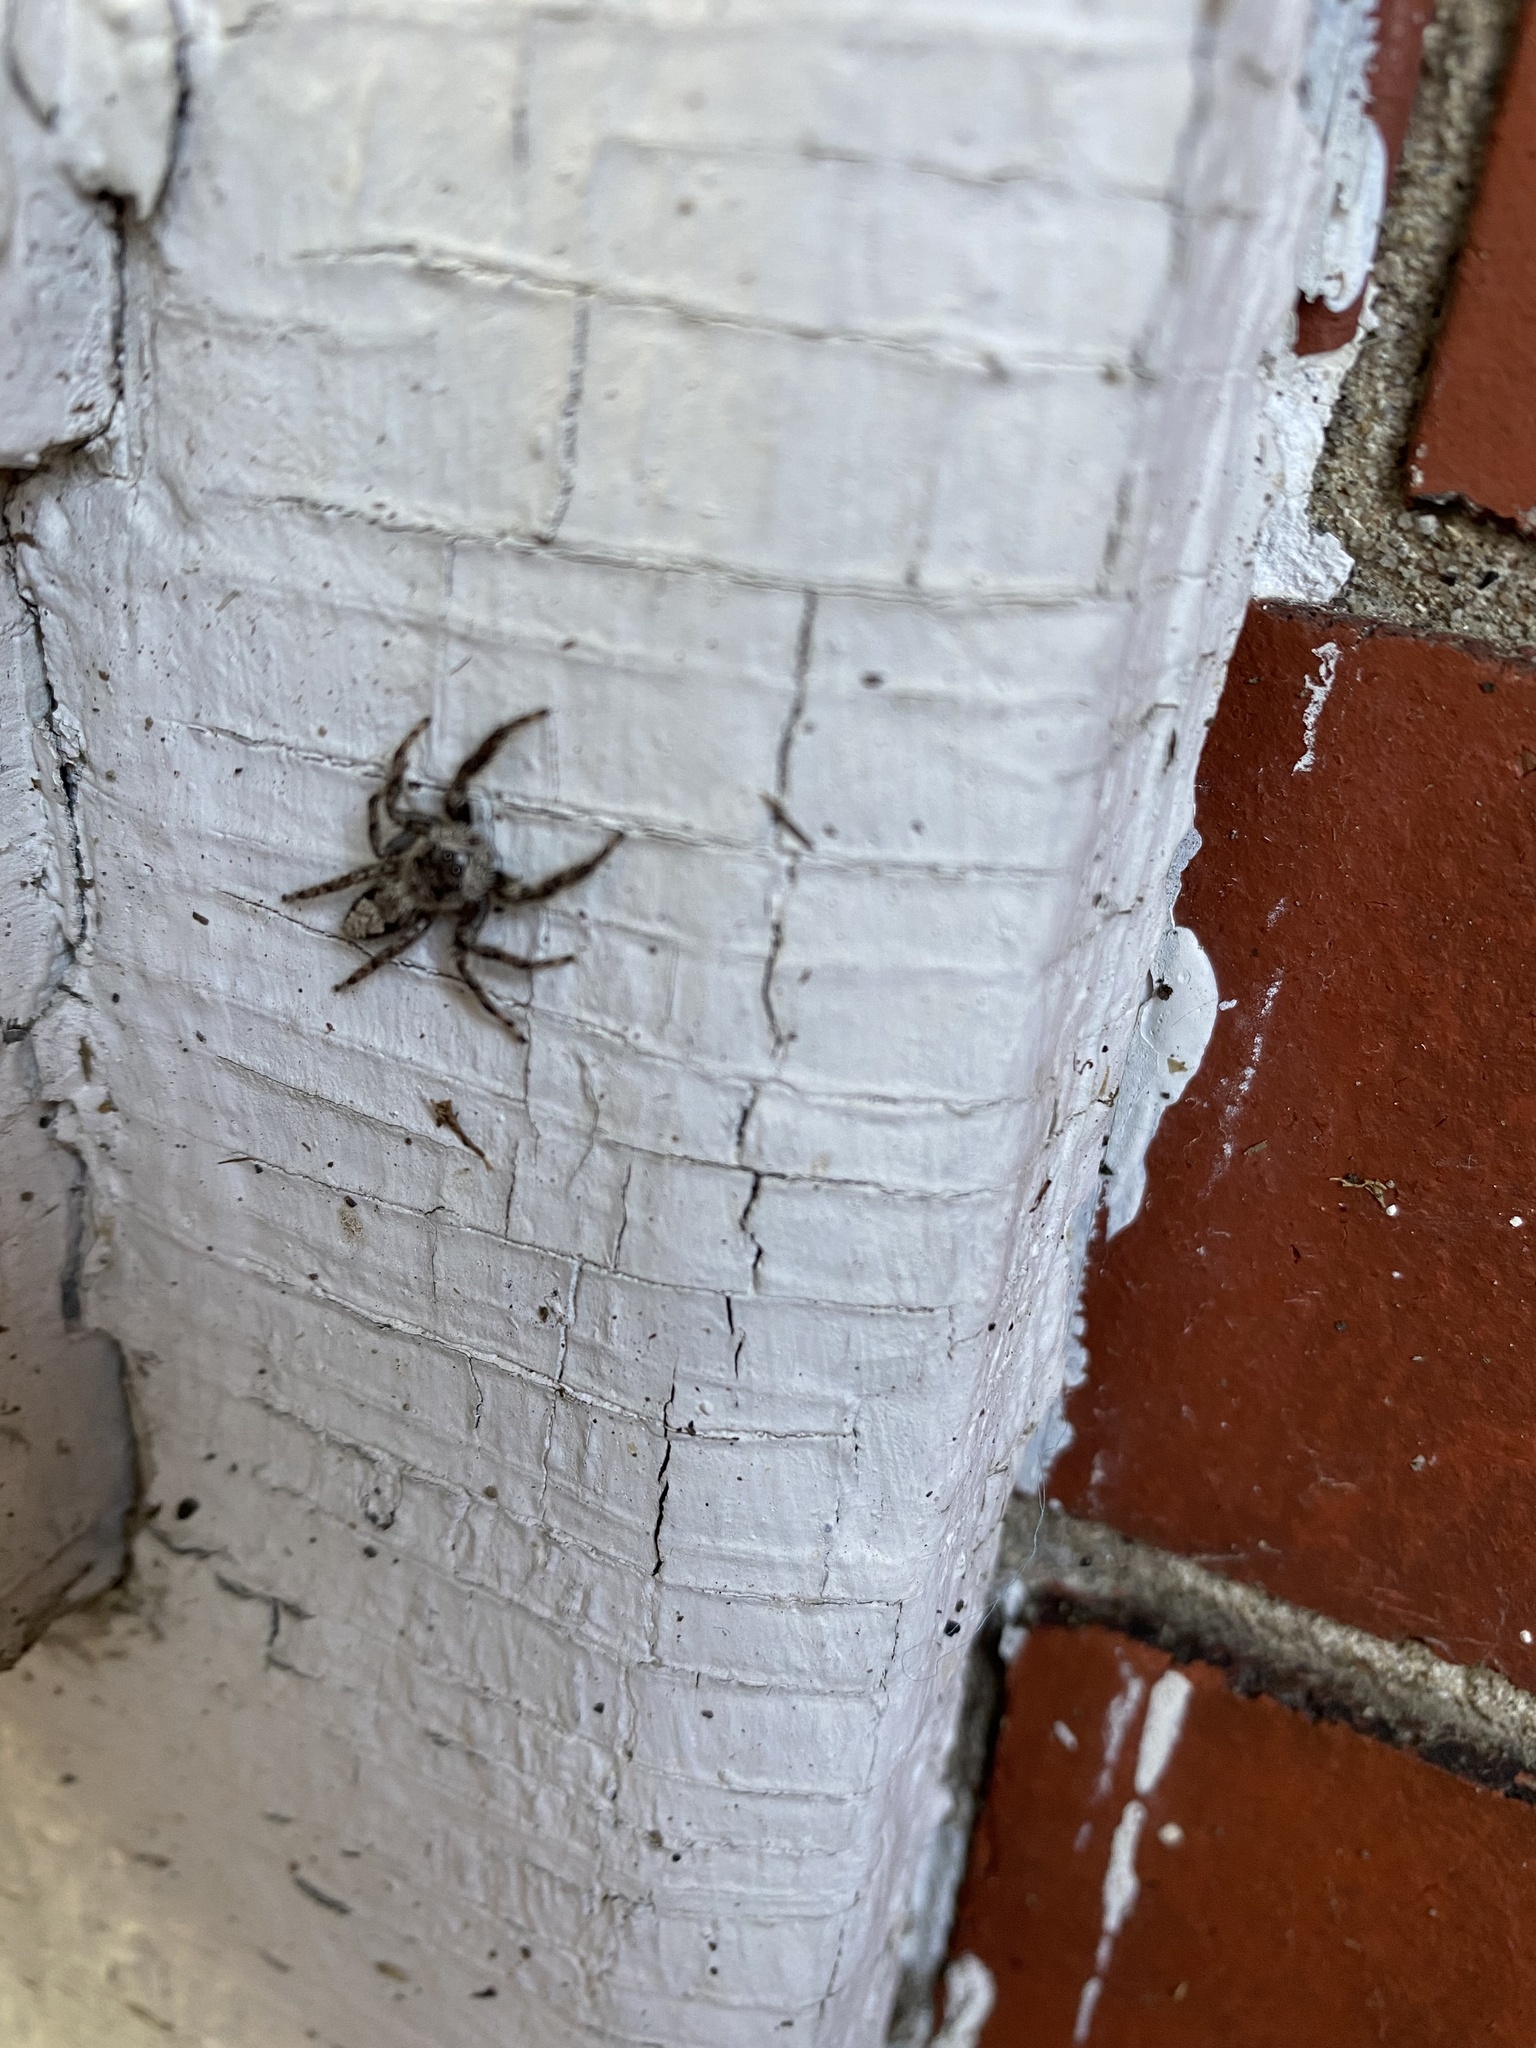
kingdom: Animalia
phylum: Arthropoda
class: Arachnida
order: Araneae
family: Salticidae
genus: Platycryptus
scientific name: Platycryptus undatus
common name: Tan jumping spider
